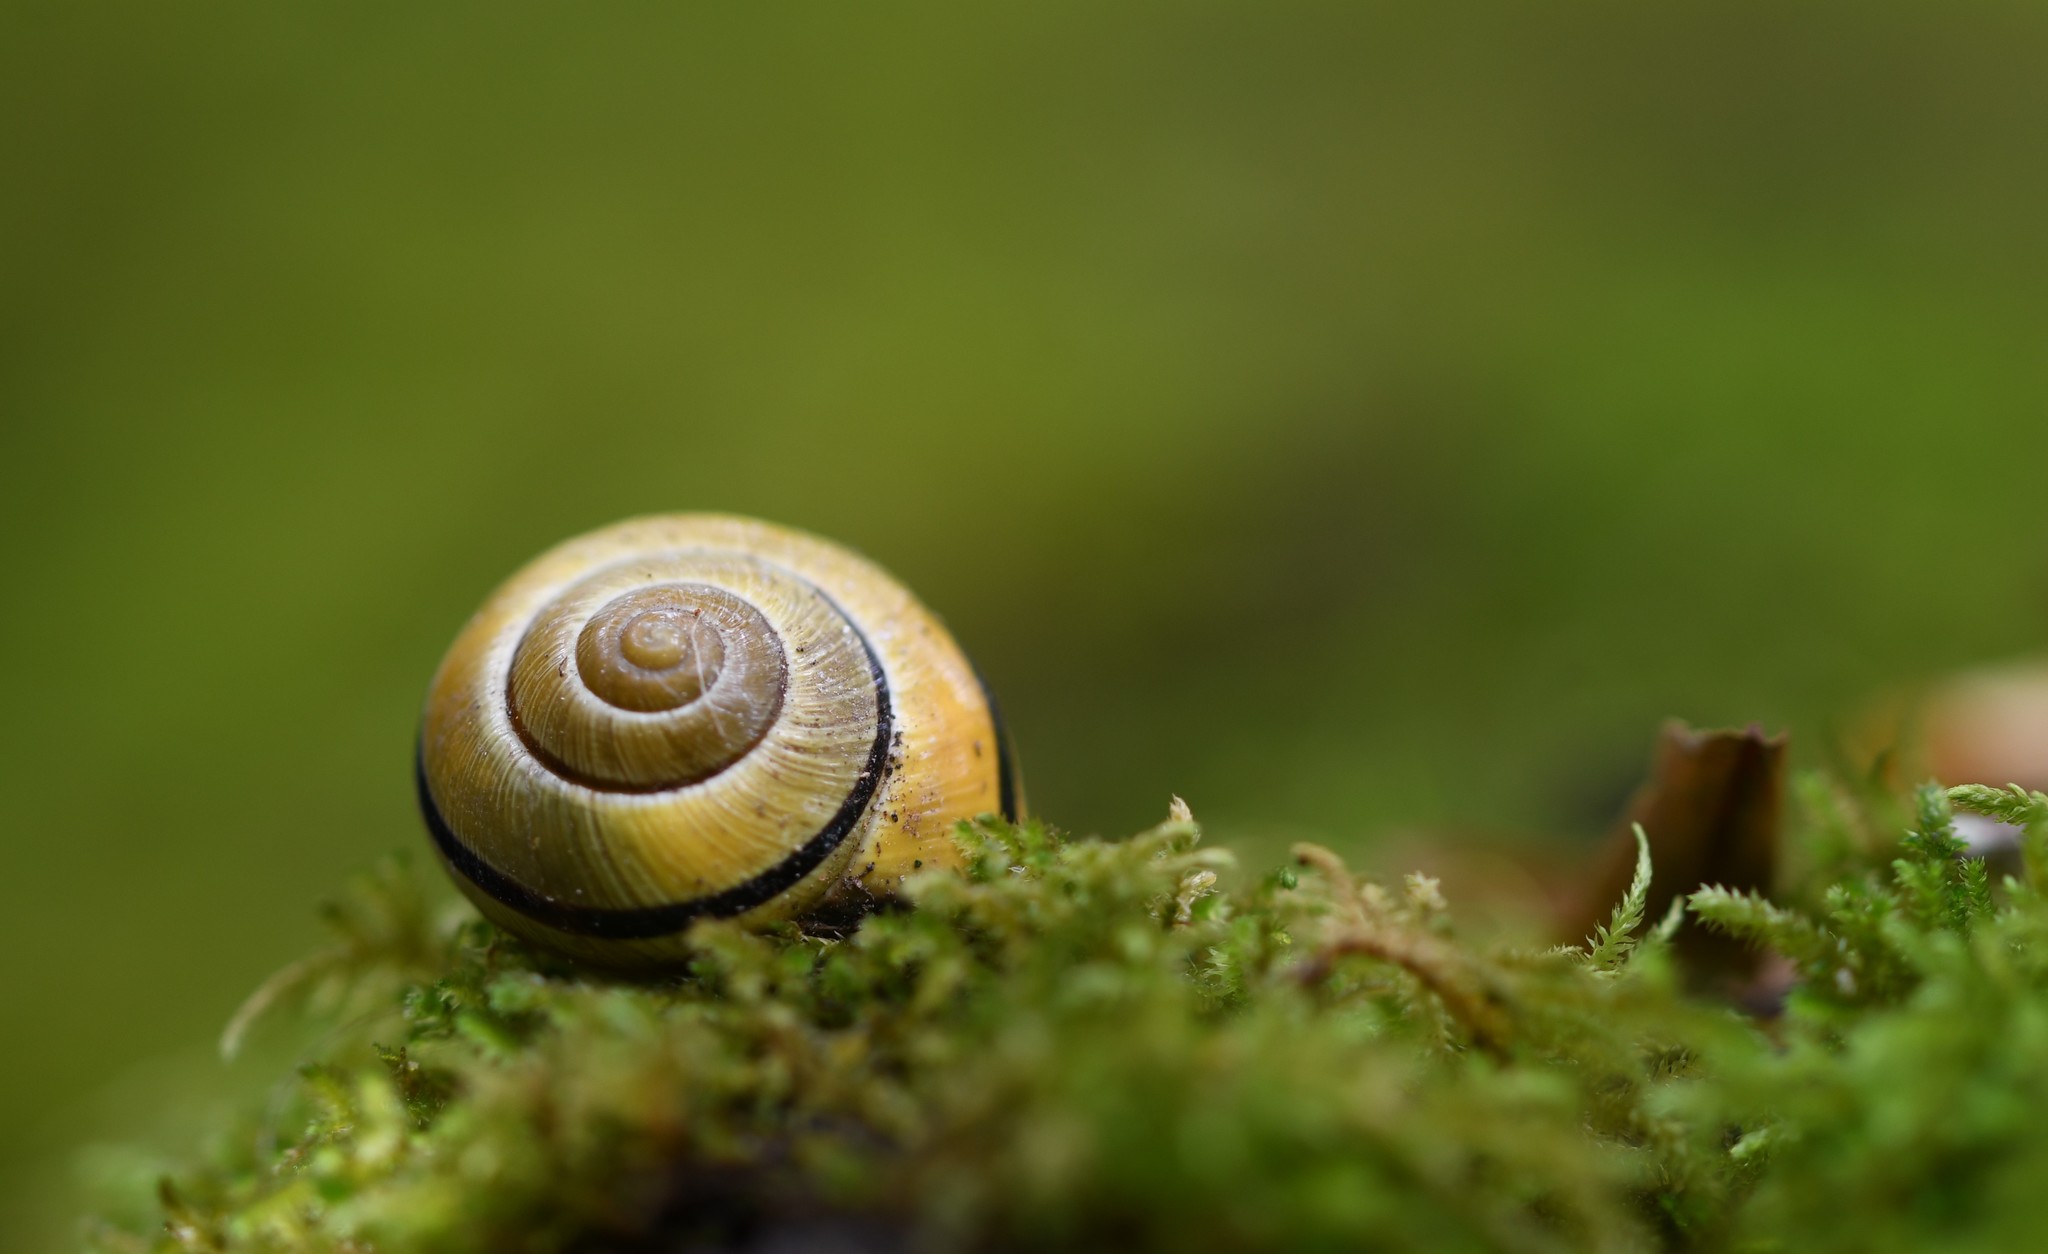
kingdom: Animalia
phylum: Mollusca
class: Gastropoda
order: Stylommatophora
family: Helicidae
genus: Cepaea
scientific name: Cepaea nemoralis
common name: Grovesnail
